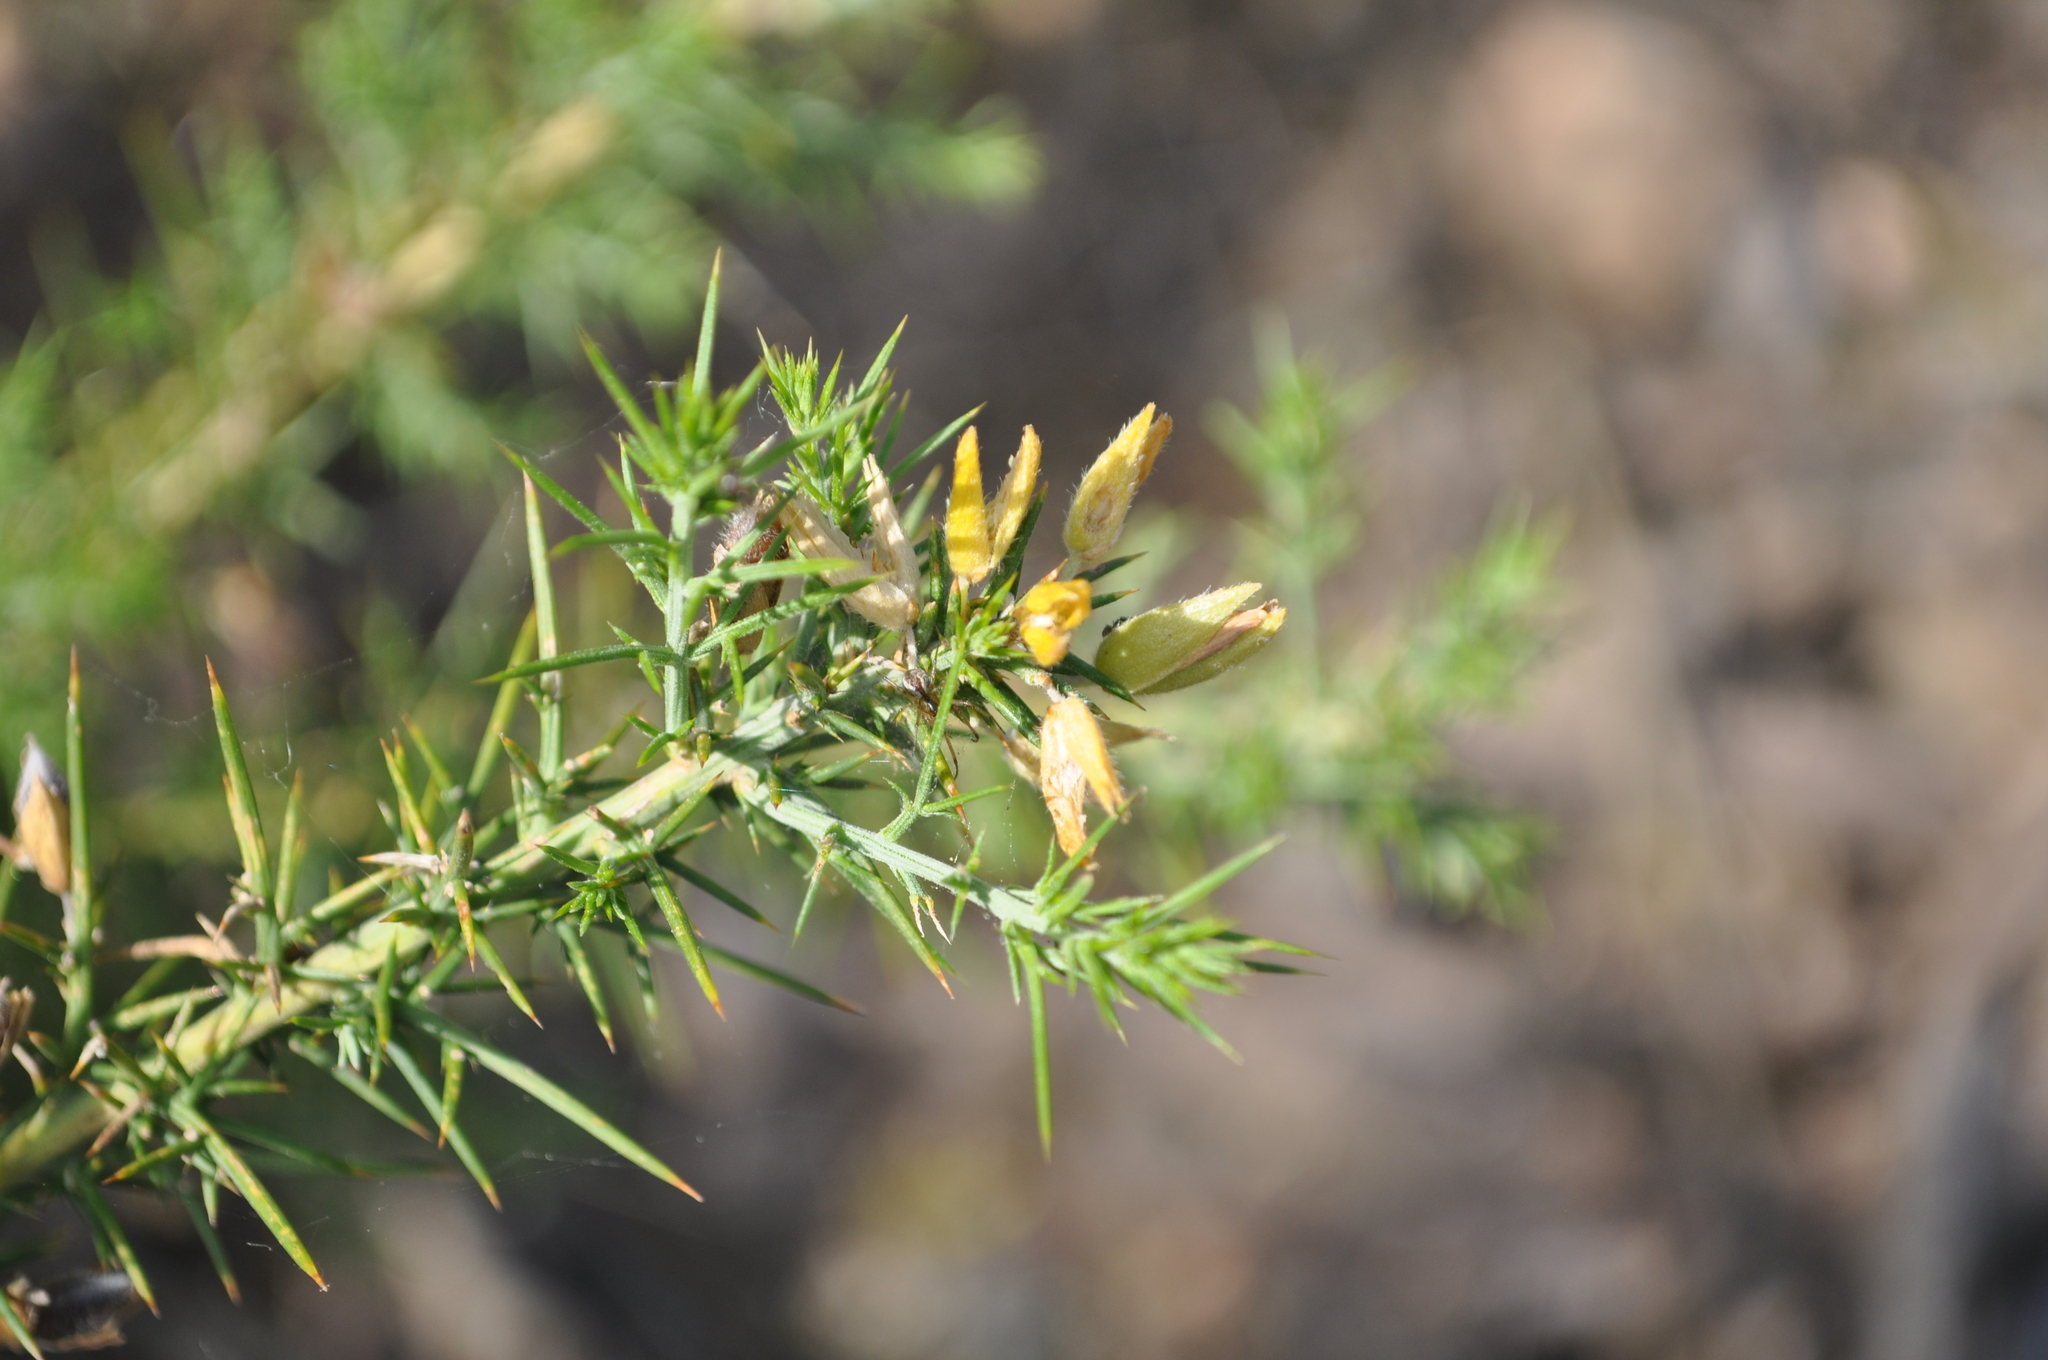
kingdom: Plantae
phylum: Tracheophyta
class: Magnoliopsida
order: Fabales
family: Fabaceae
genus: Ulex
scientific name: Ulex parviflorus
